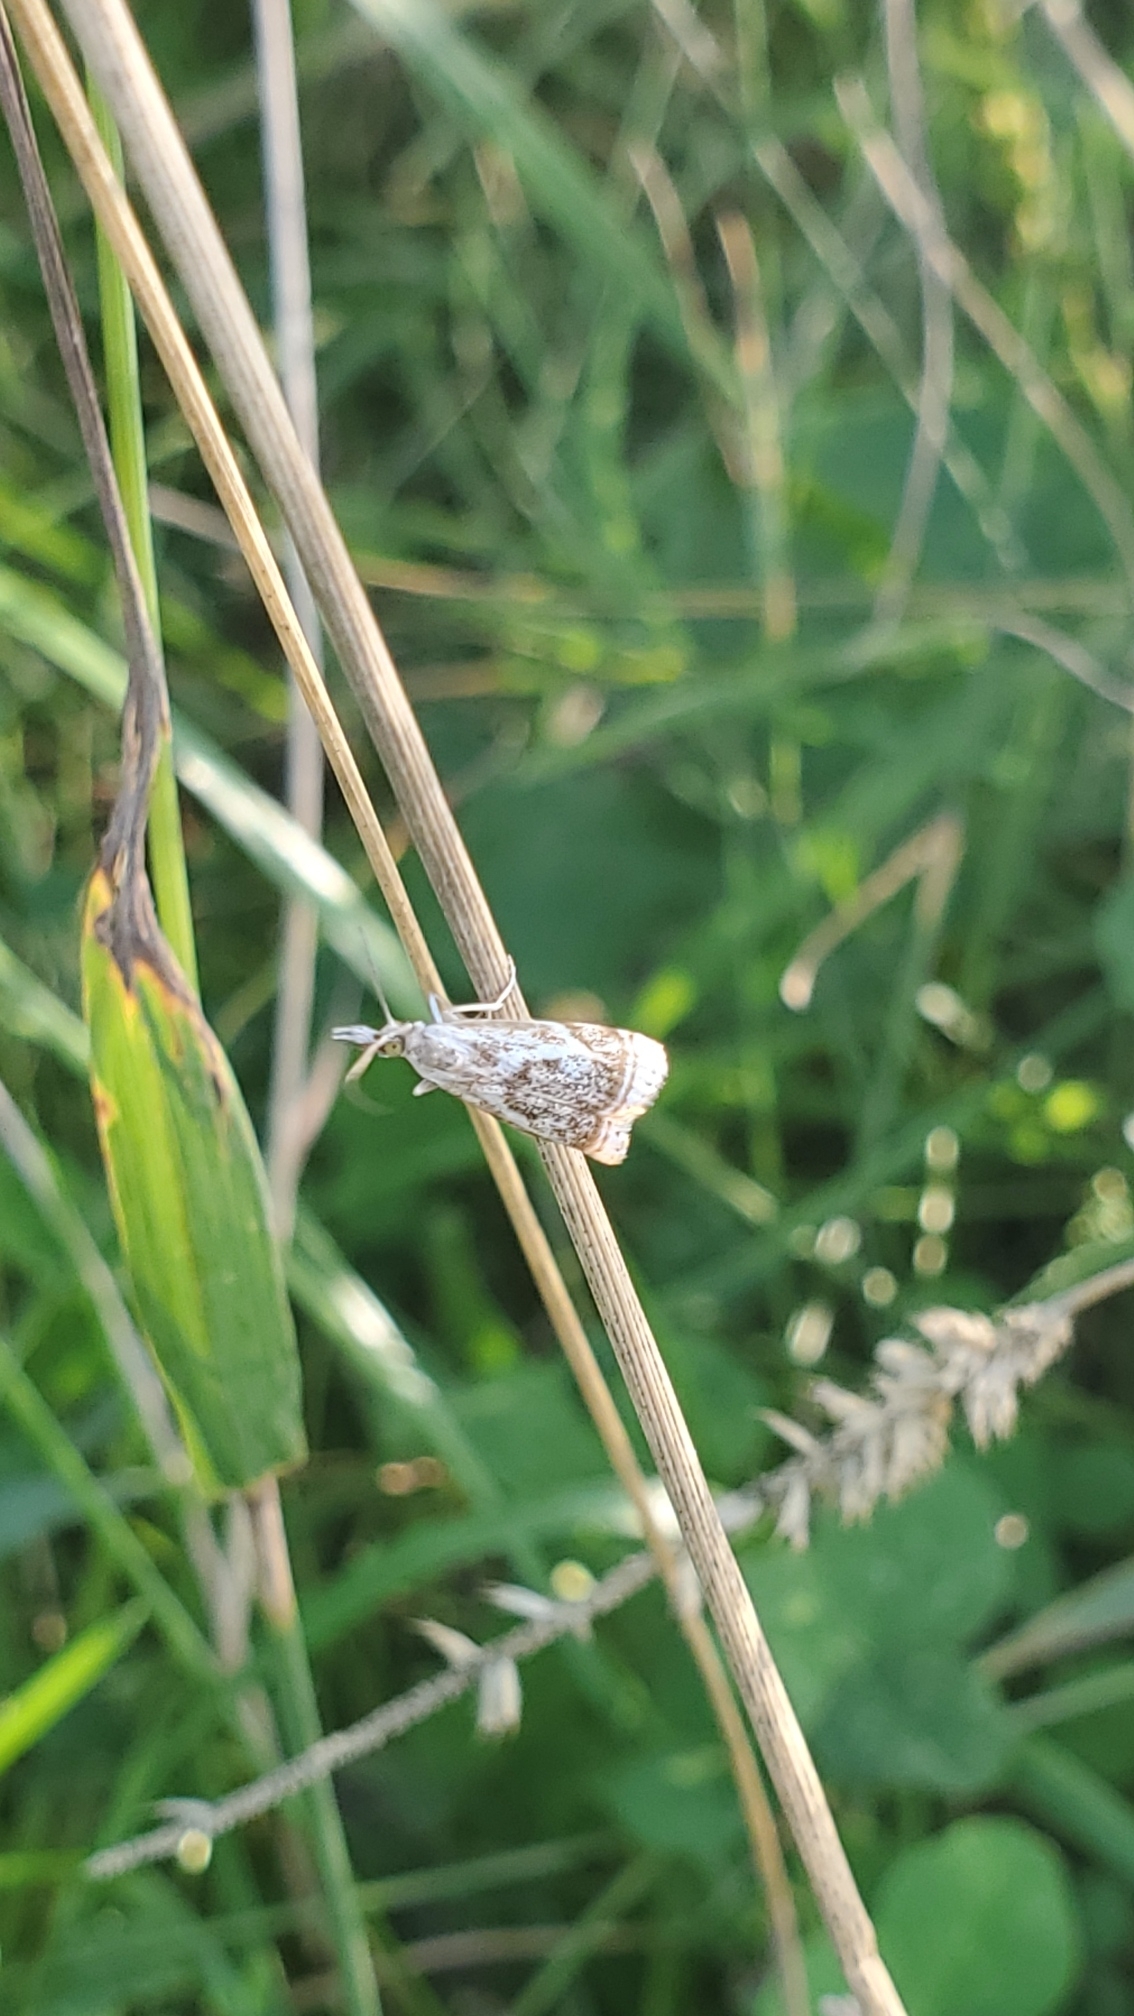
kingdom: Animalia
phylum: Arthropoda
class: Insecta
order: Lepidoptera
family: Crambidae
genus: Microcrambus
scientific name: Microcrambus elegans
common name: Elegant grass-veneer
